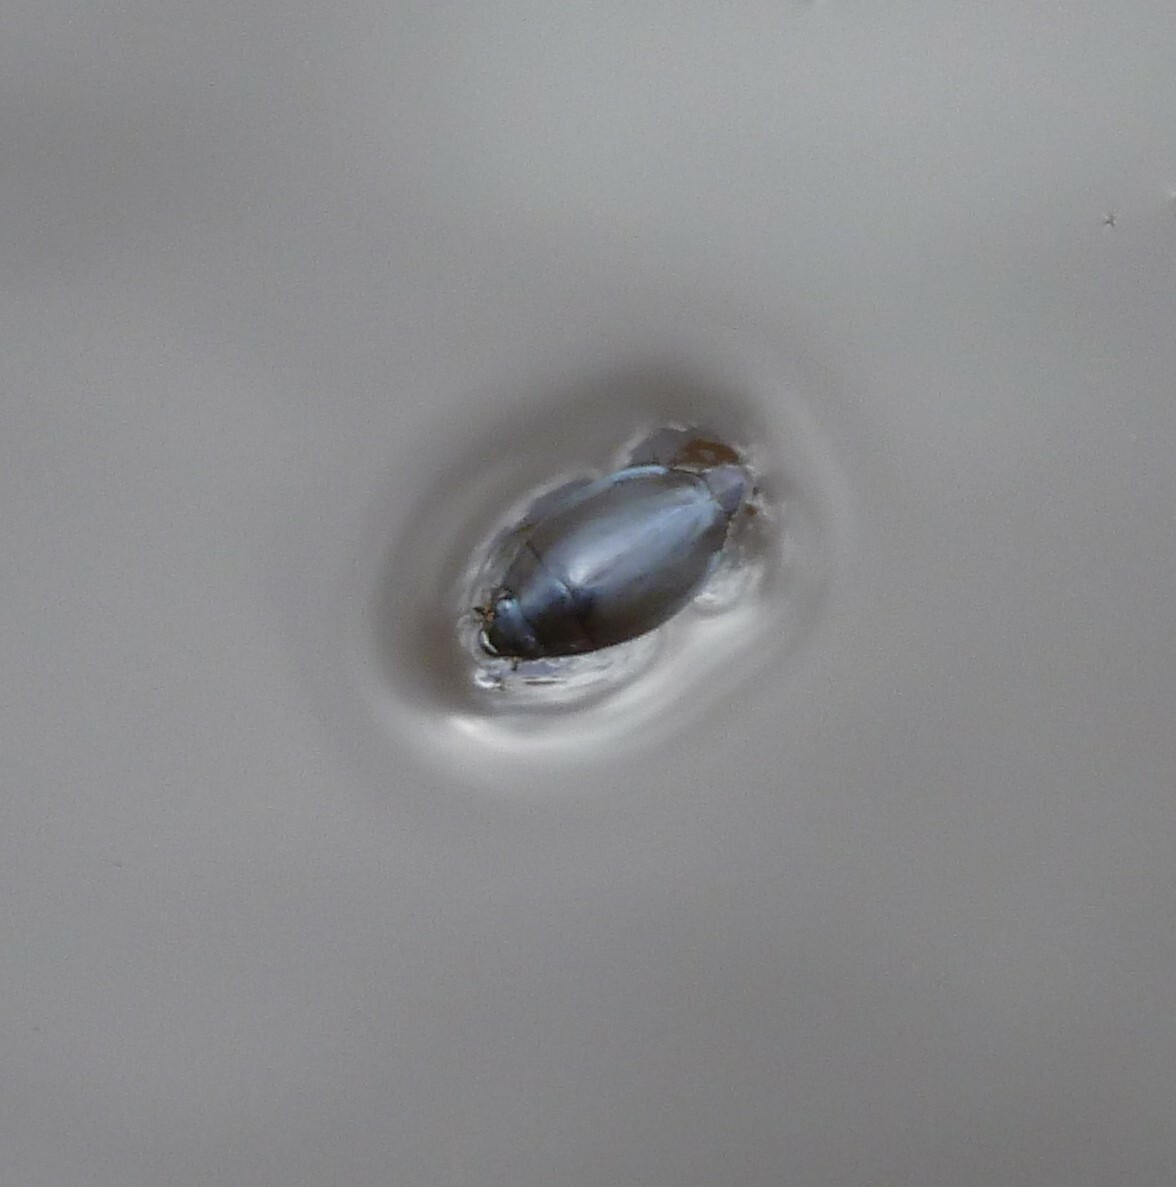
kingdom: Animalia
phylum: Arthropoda
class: Insecta
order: Coleoptera
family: Gyrinidae
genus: Dineutus
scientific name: Dineutus
